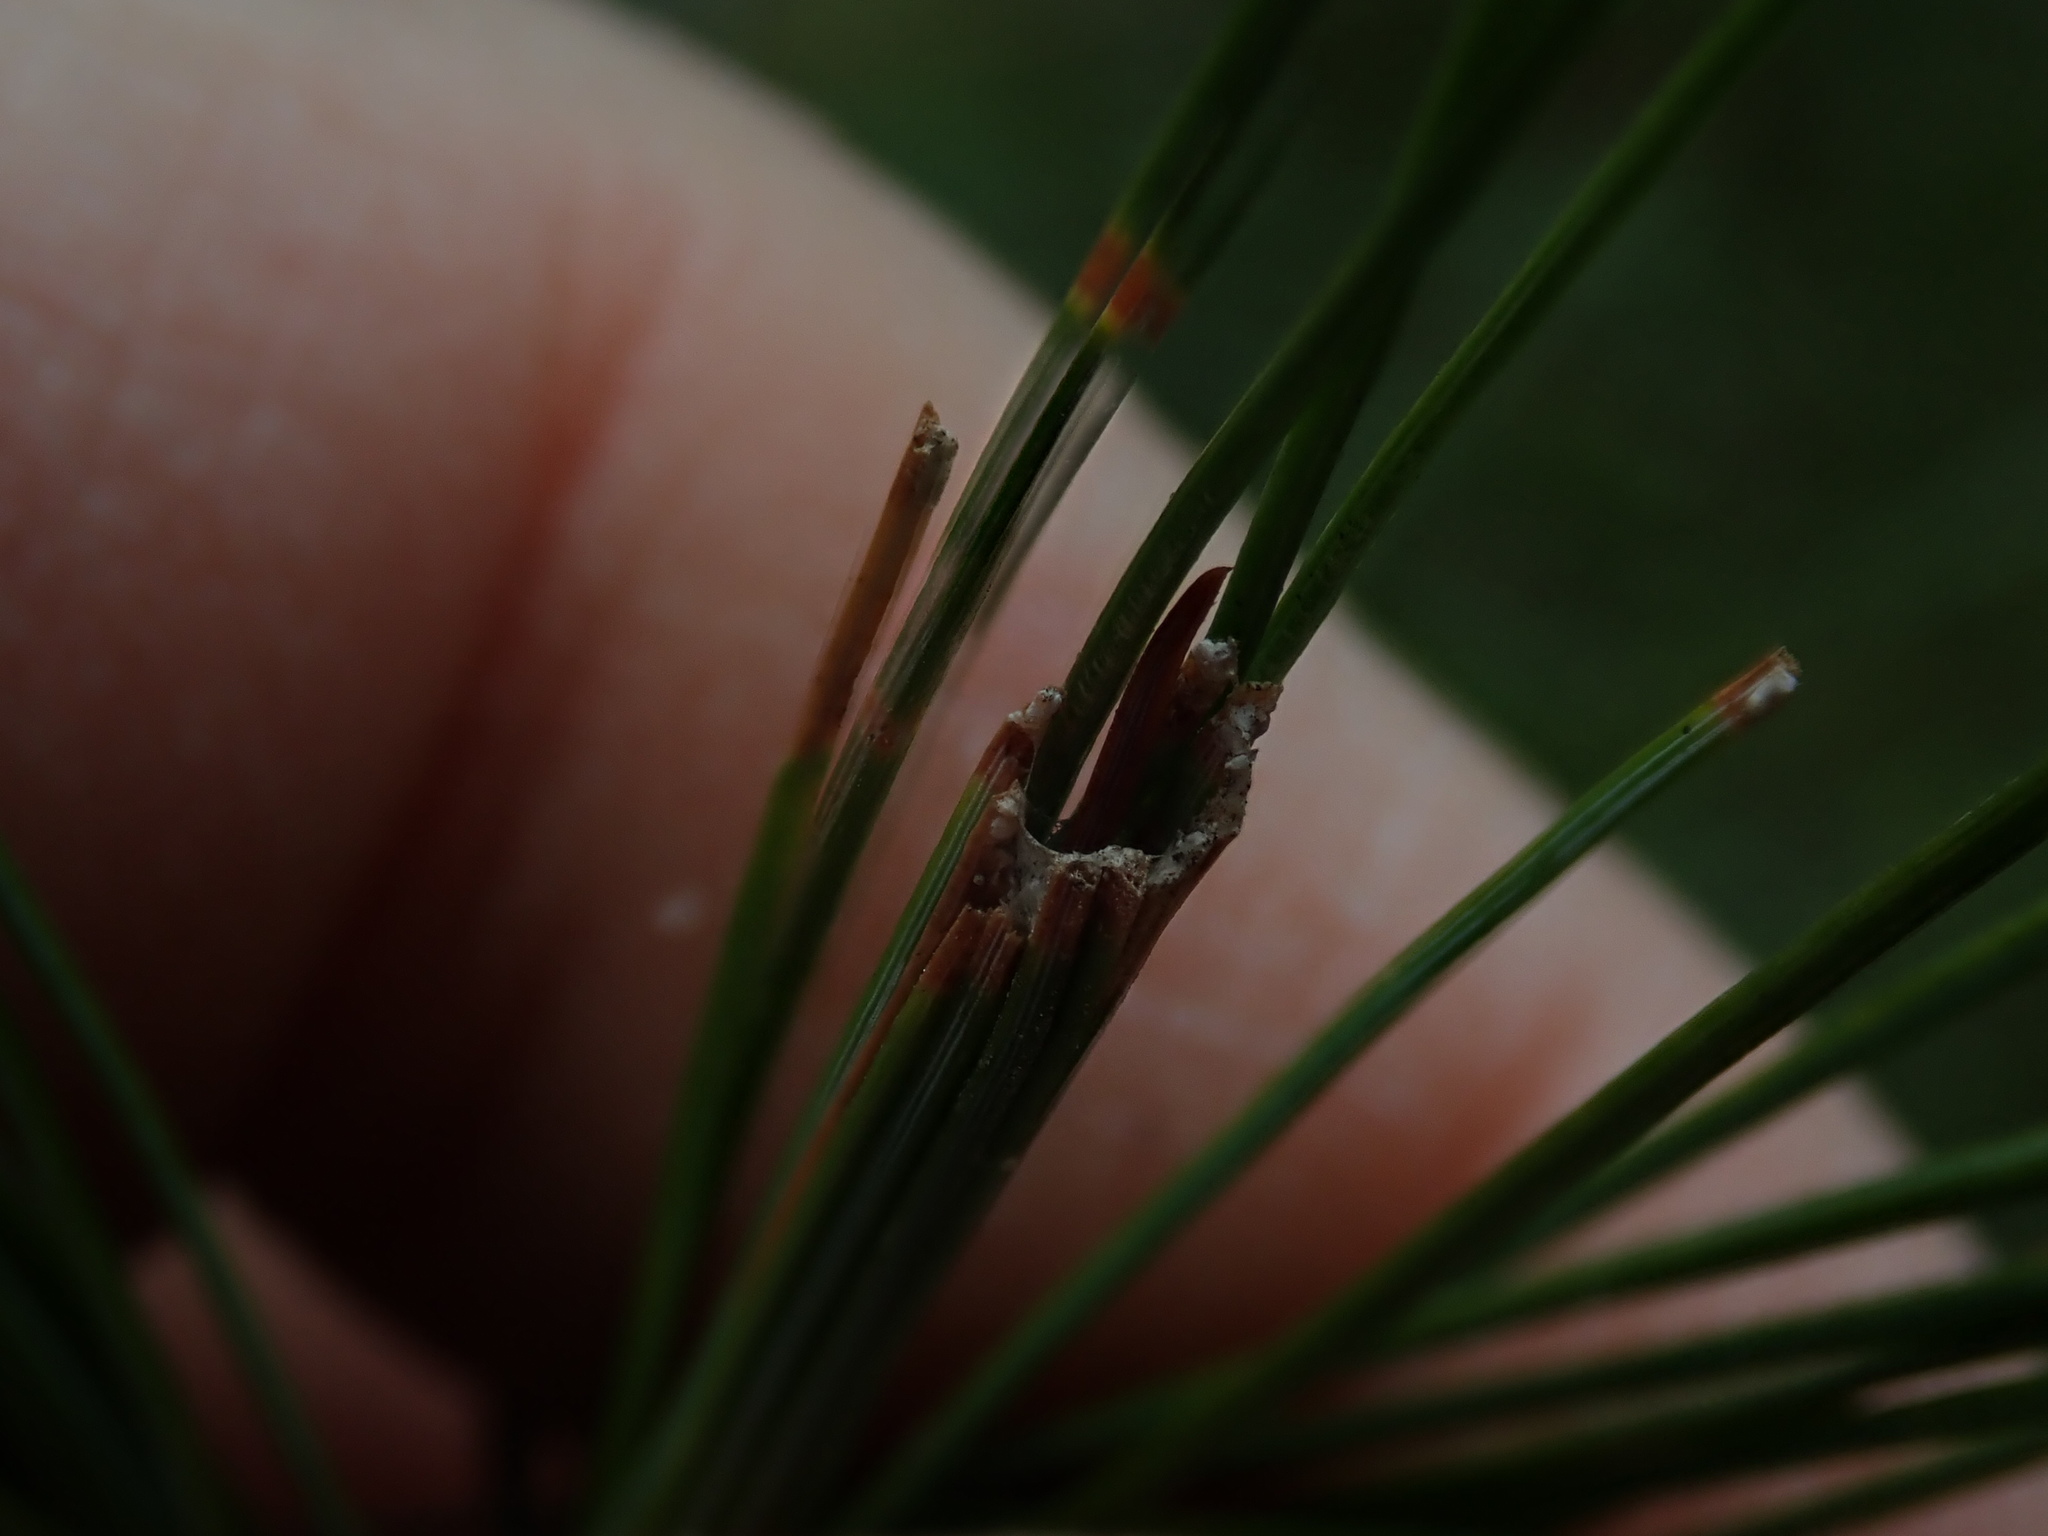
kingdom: Animalia
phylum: Arthropoda
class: Insecta
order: Lepidoptera
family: Tortricidae
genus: Argyrotaenia
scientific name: Argyrotaenia pinatubana
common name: Pine tube moth
